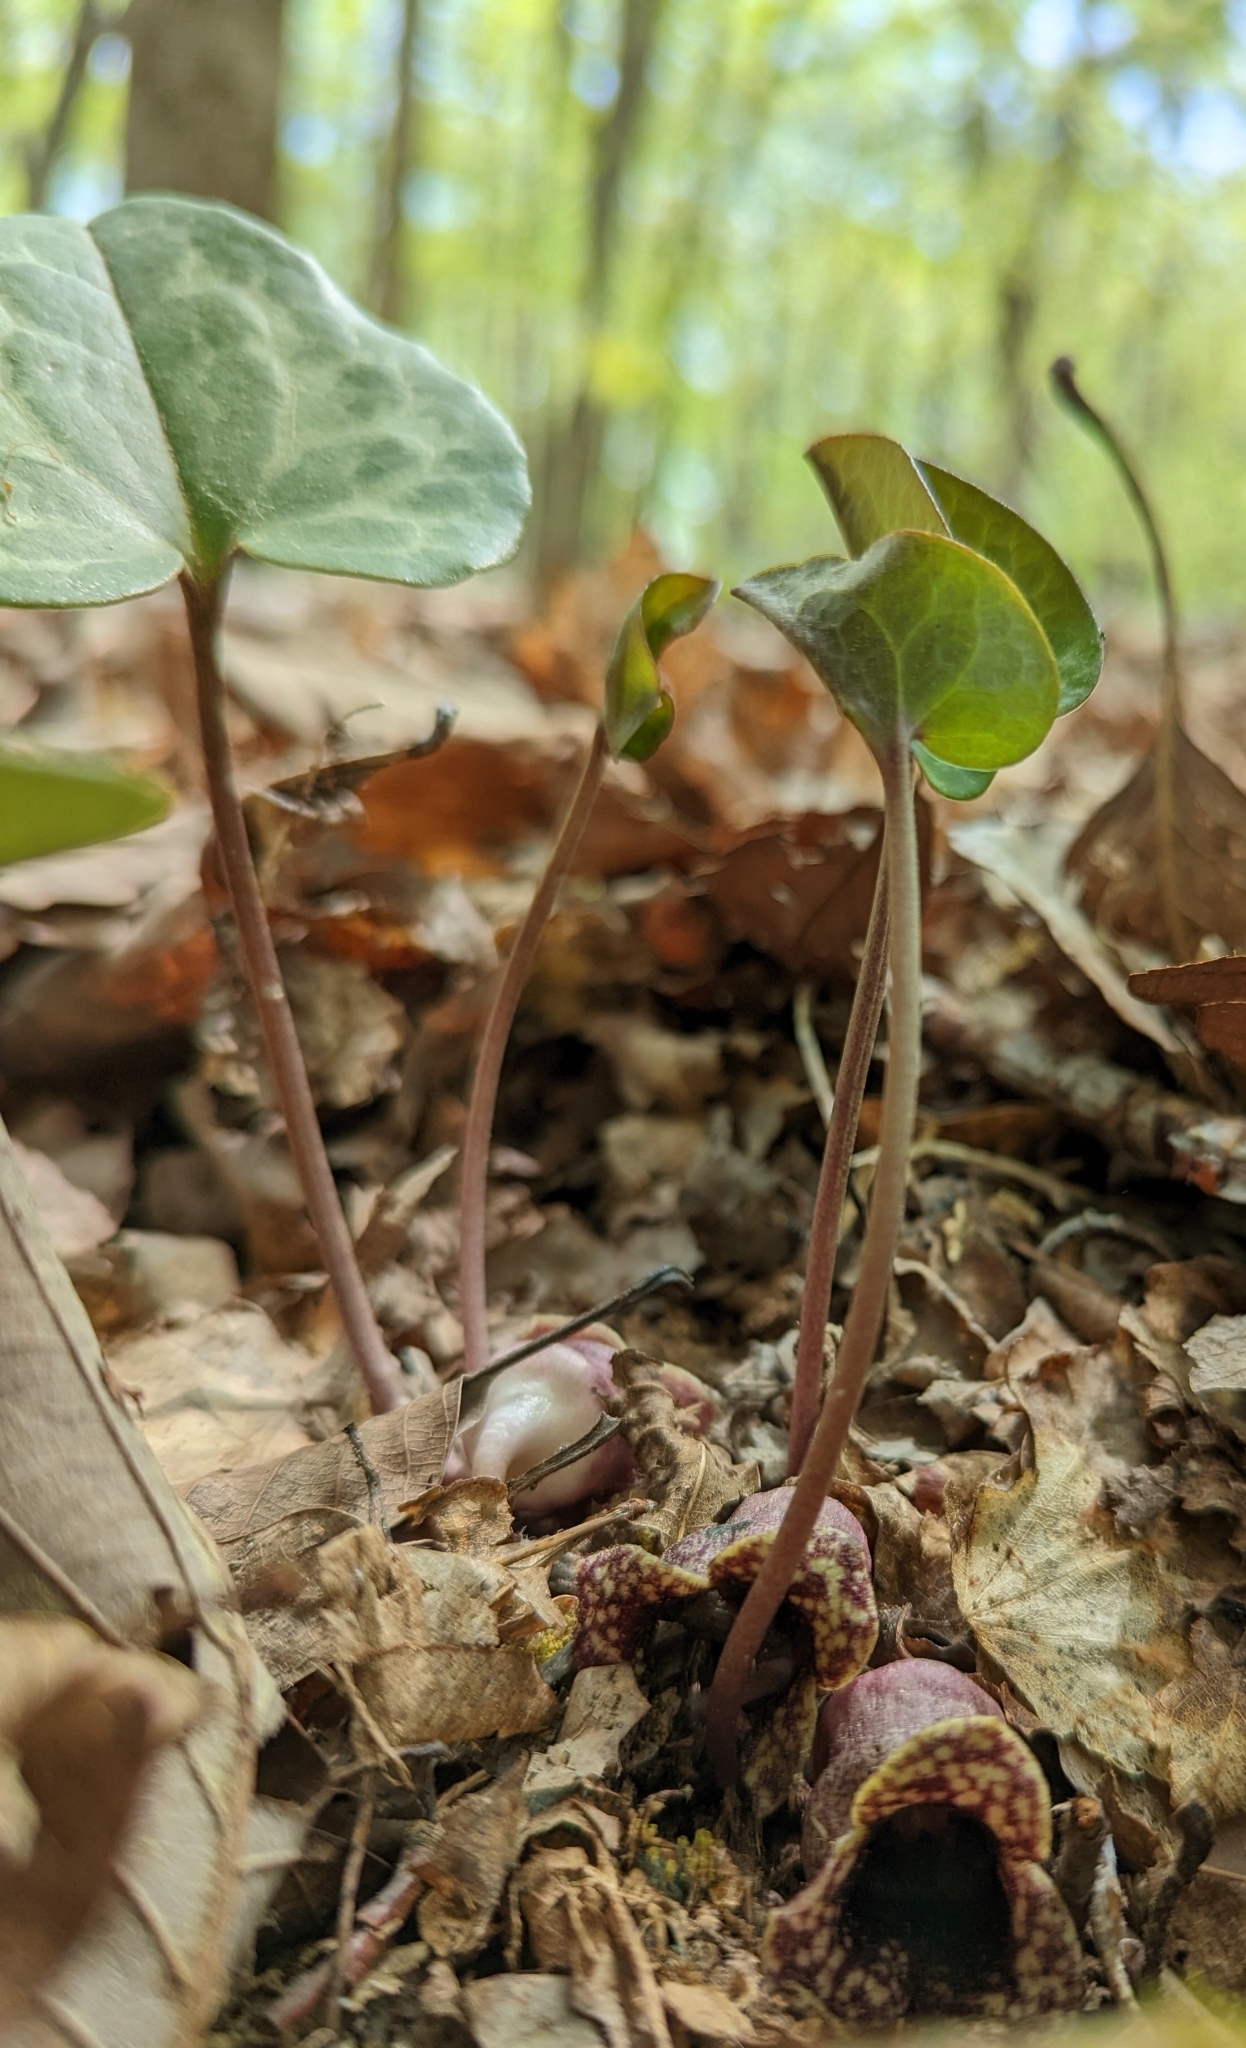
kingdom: Plantae
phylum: Tracheophyta
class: Magnoliopsida
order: Piperales
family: Aristolochiaceae
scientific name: Aristolochiaceae
